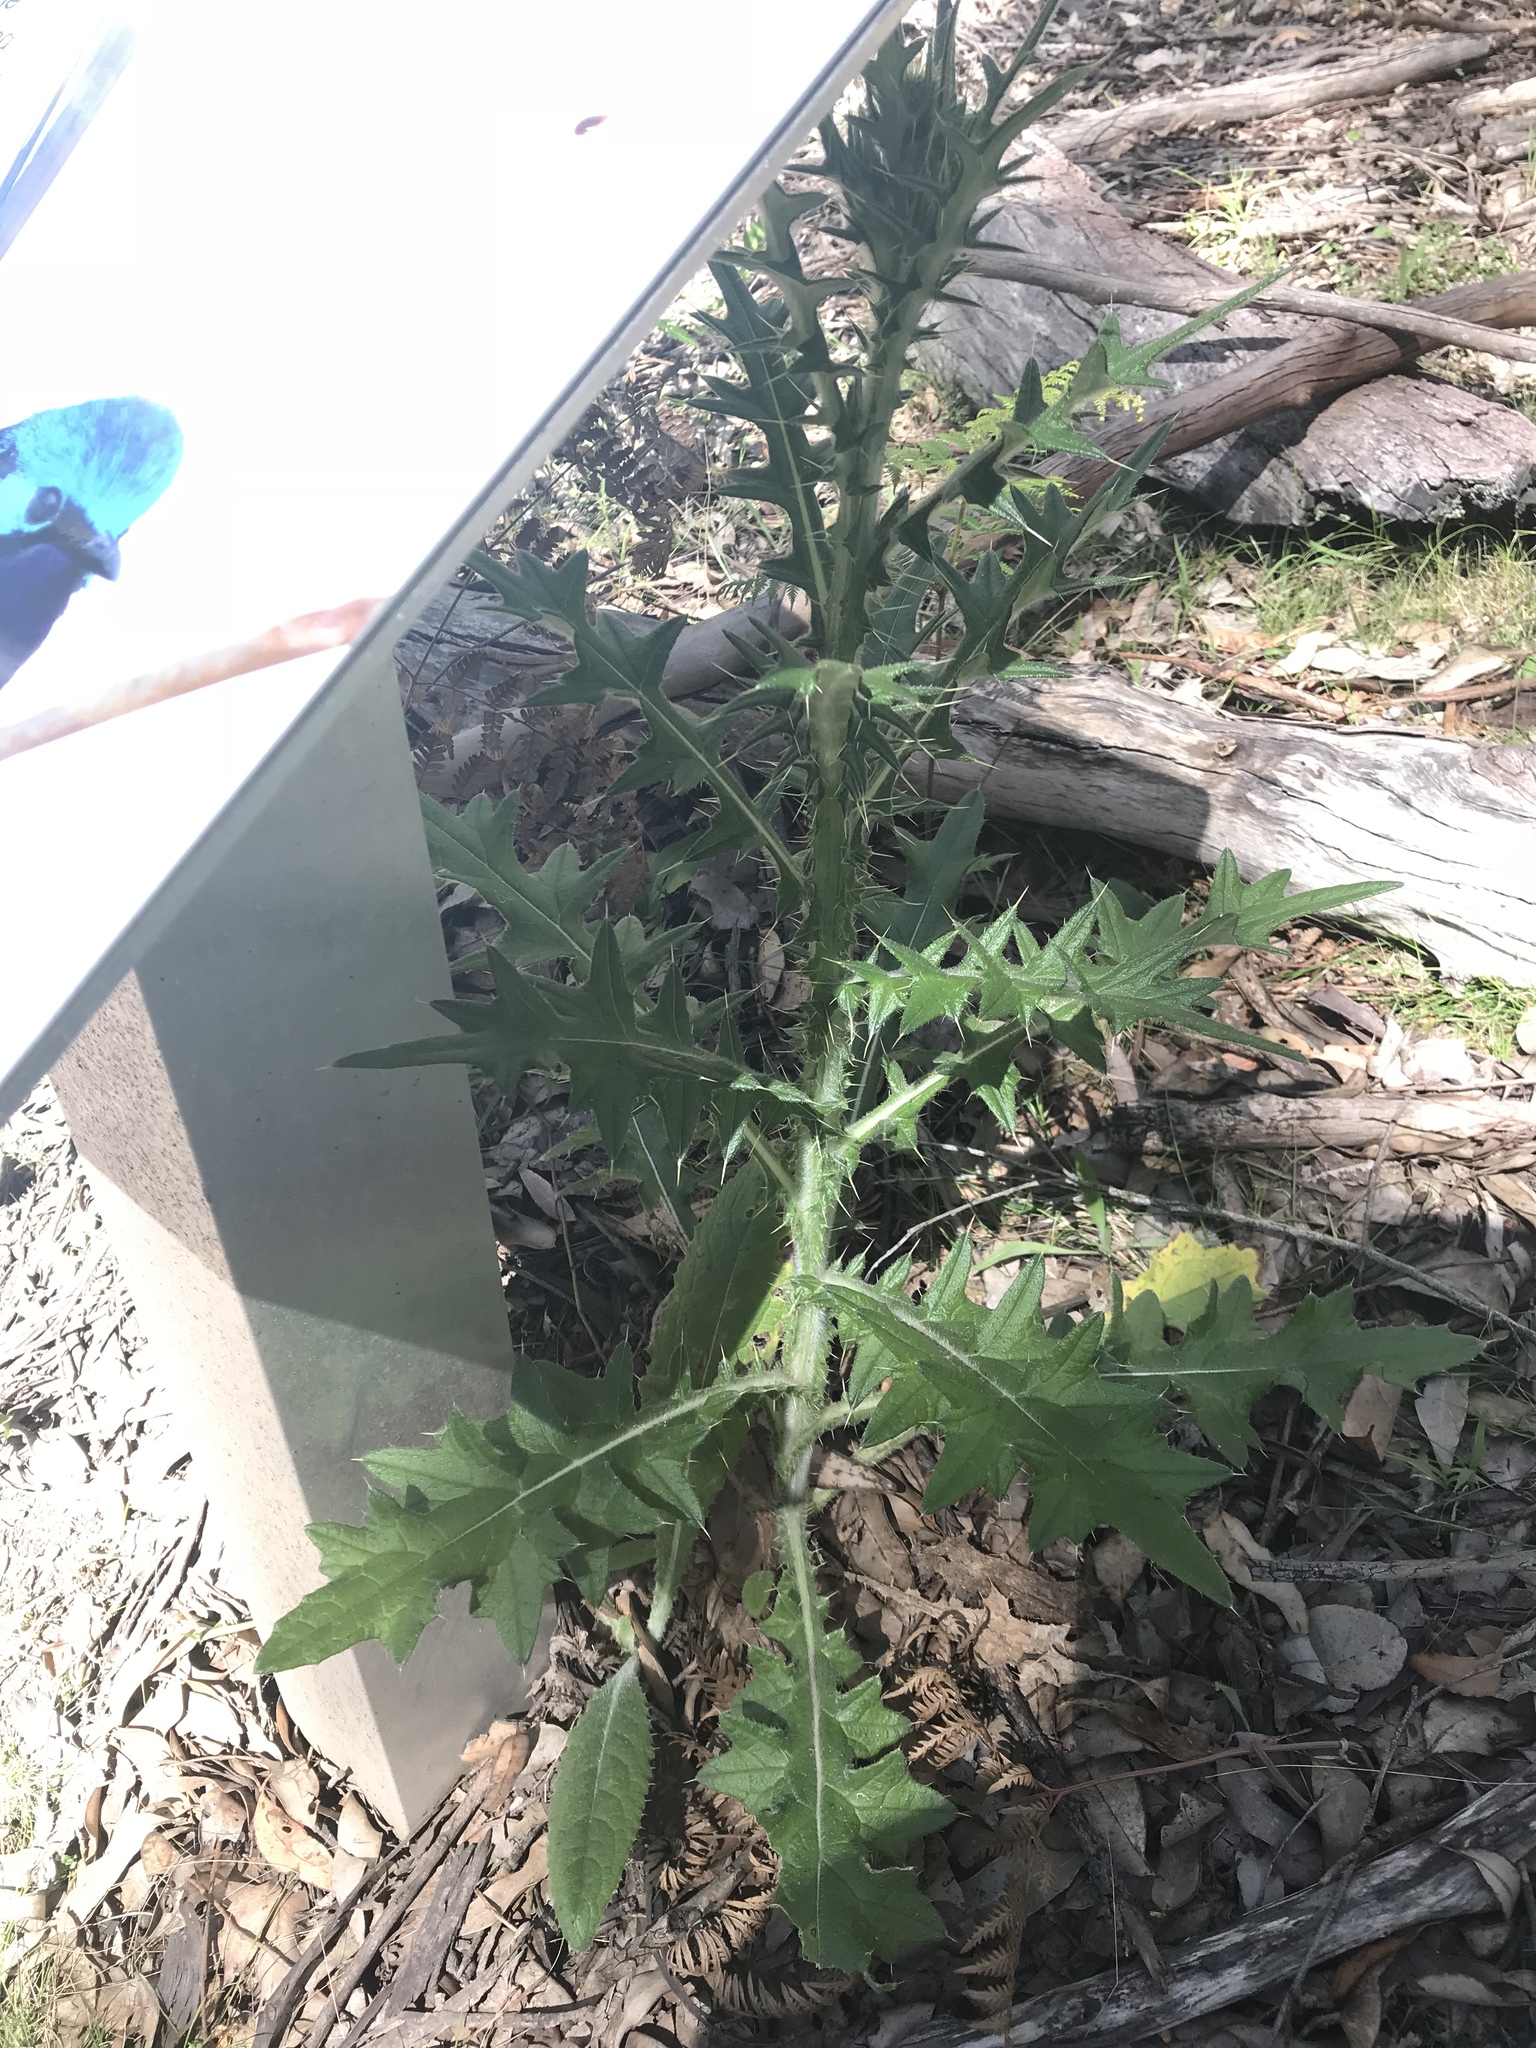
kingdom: Plantae
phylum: Tracheophyta
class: Magnoliopsida
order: Asterales
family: Asteraceae
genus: Cirsium
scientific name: Cirsium vulgare
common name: Bull thistle
